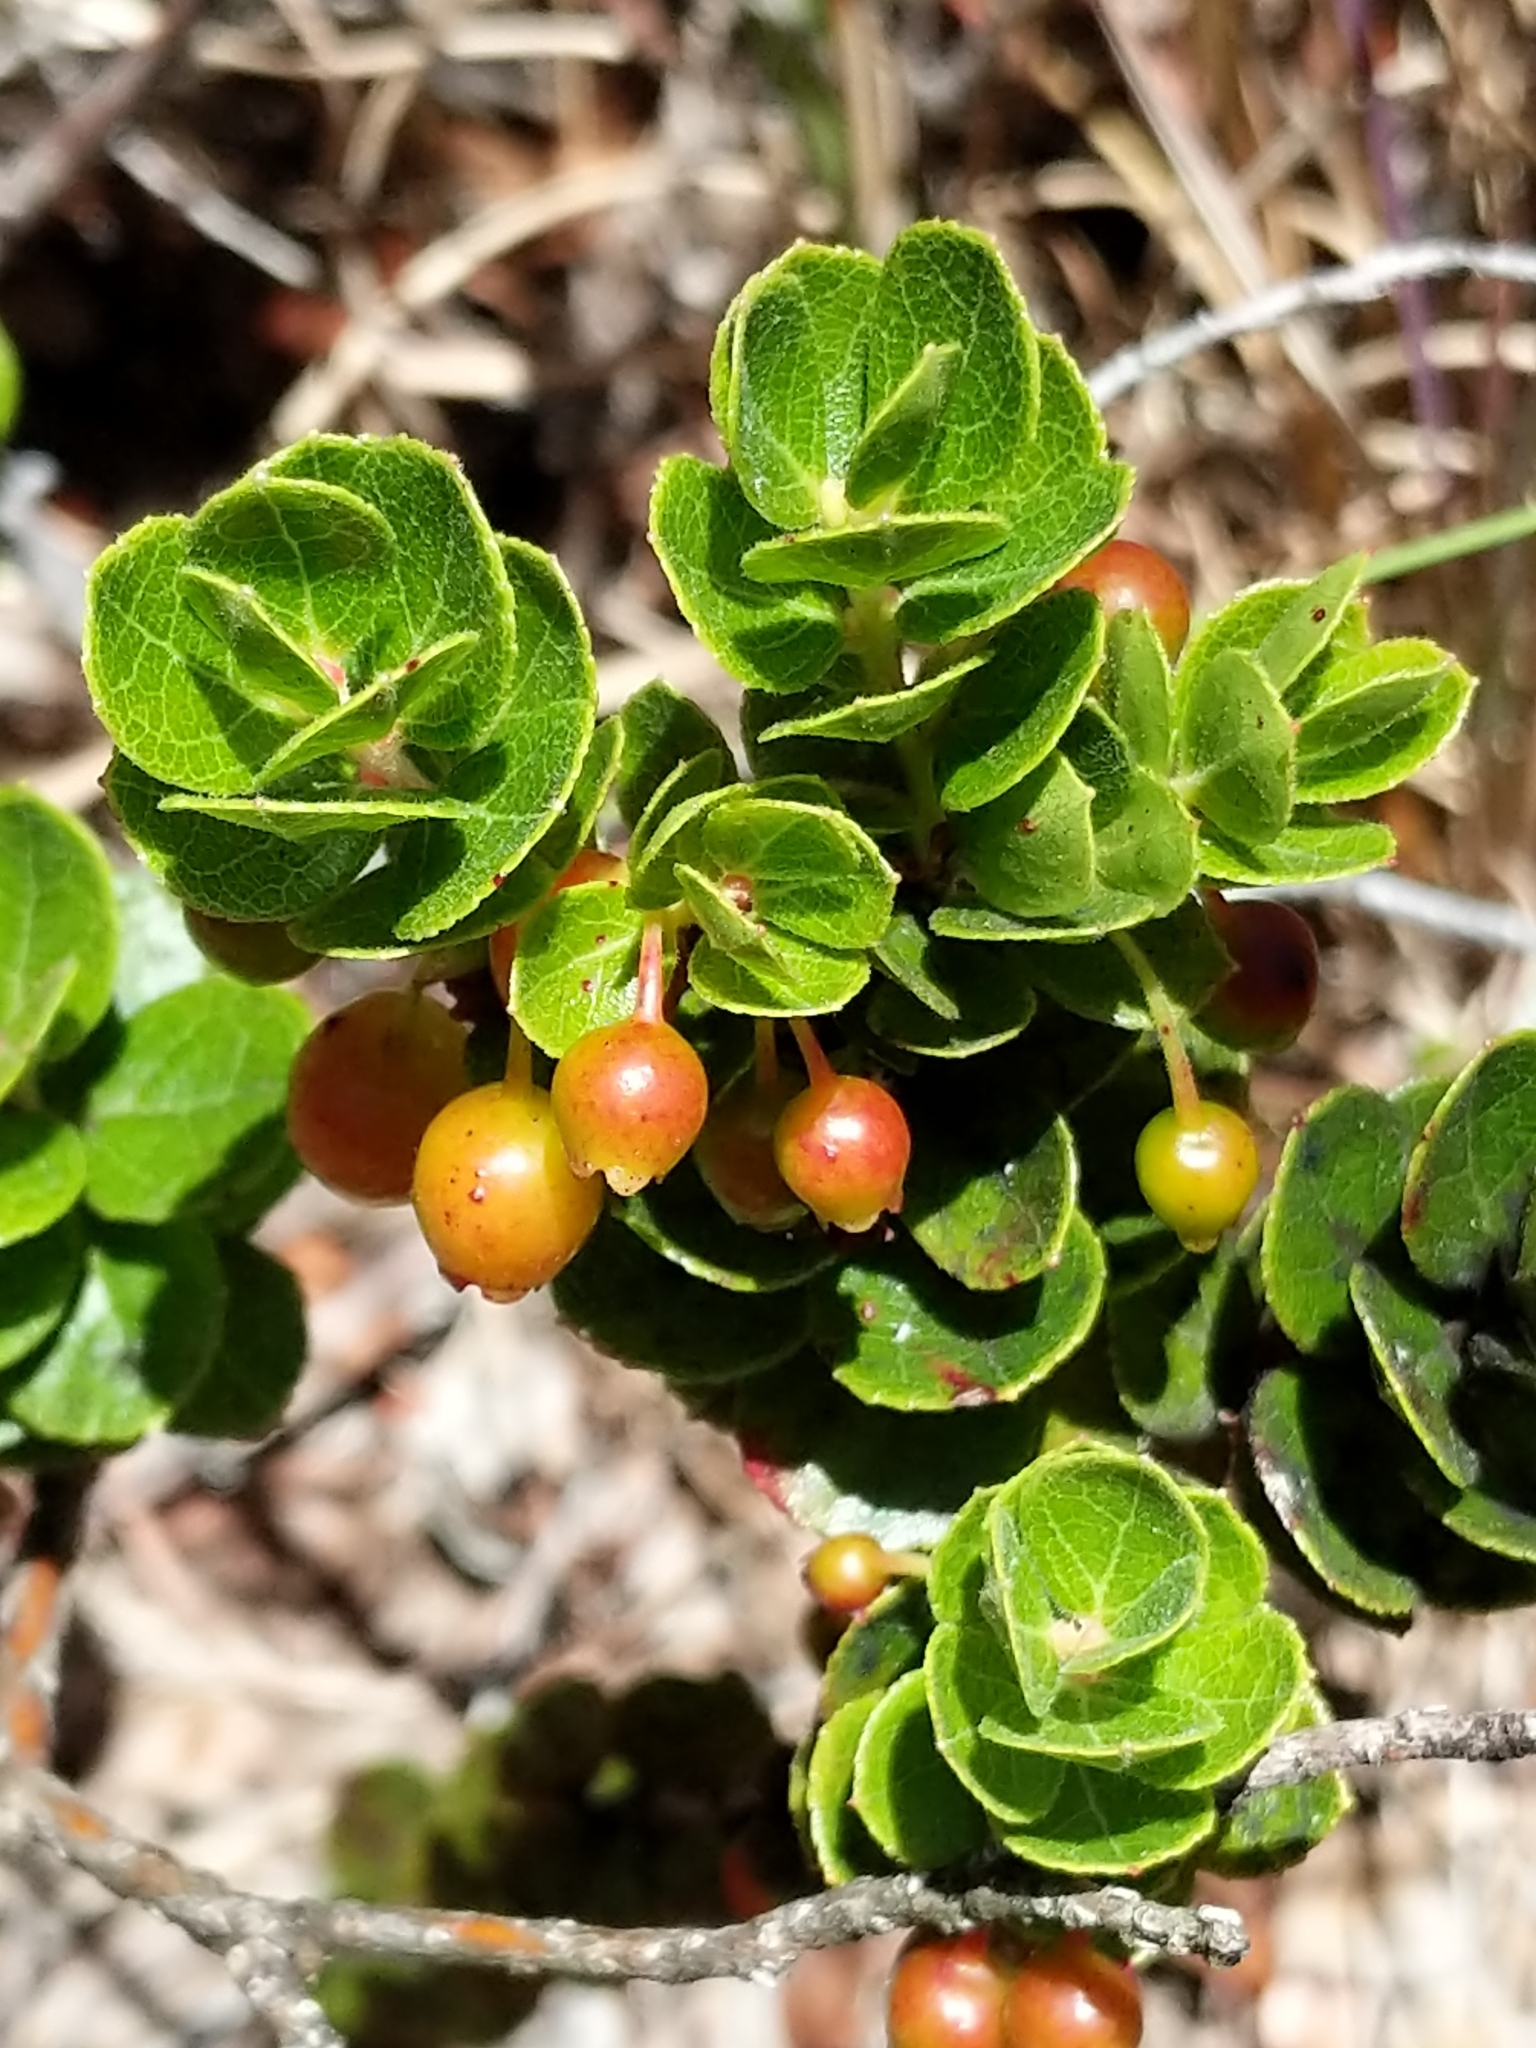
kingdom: Plantae
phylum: Tracheophyta
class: Magnoliopsida
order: Ericales
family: Ericaceae
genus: Vaccinium
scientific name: Vaccinium reticulatum
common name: Ohelo
